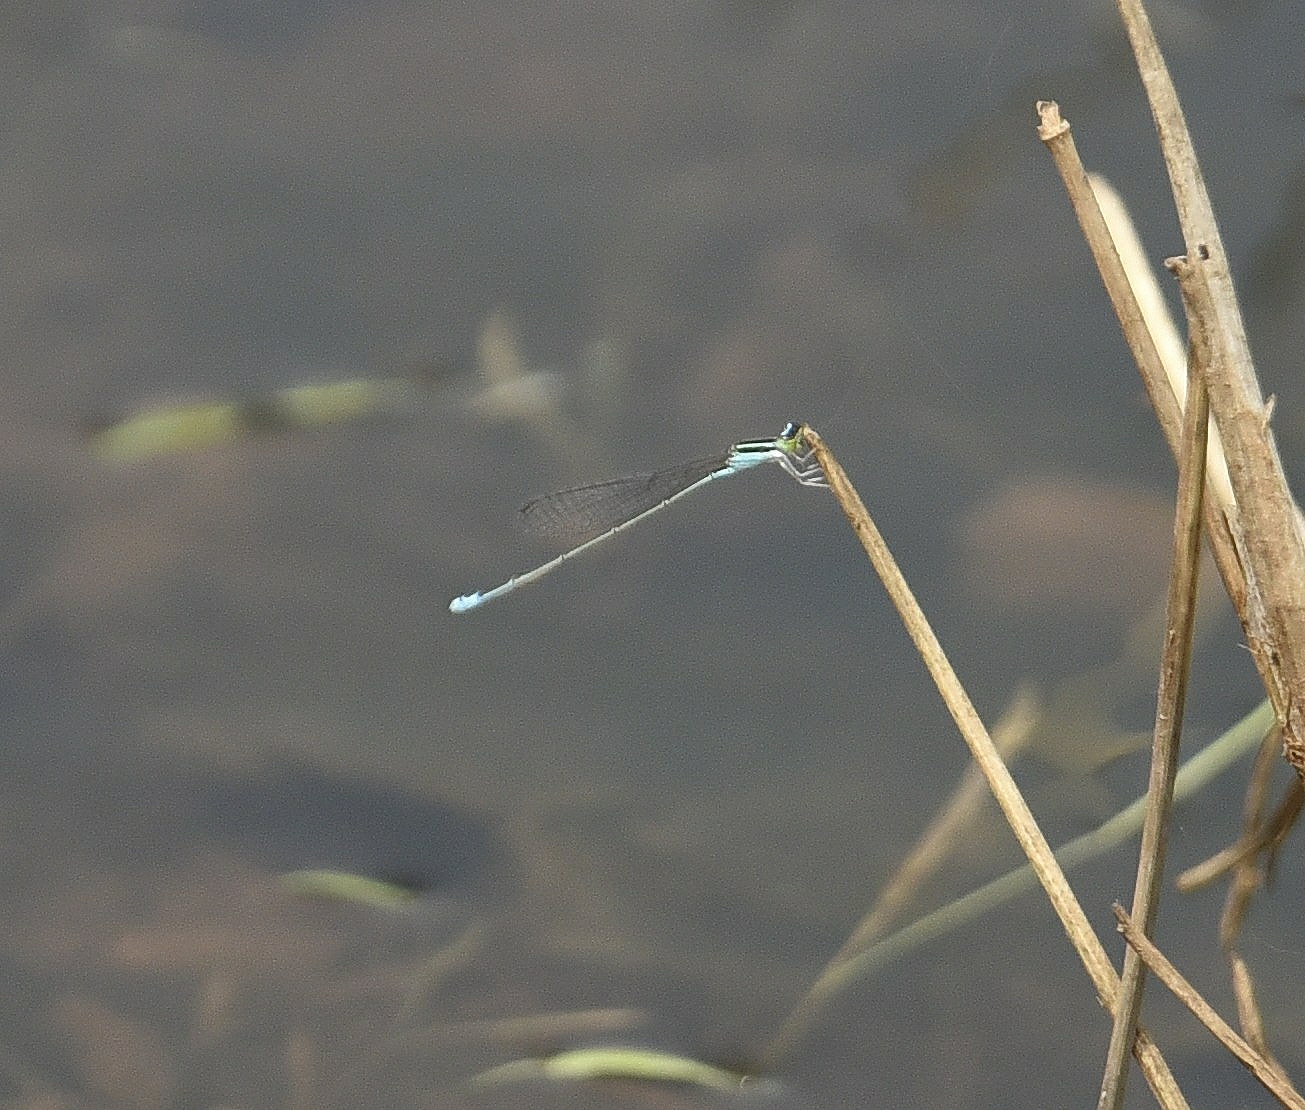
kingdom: Animalia
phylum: Arthropoda
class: Insecta
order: Odonata
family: Coenagrionidae
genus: Aciagrion
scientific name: Aciagrion occidentale
